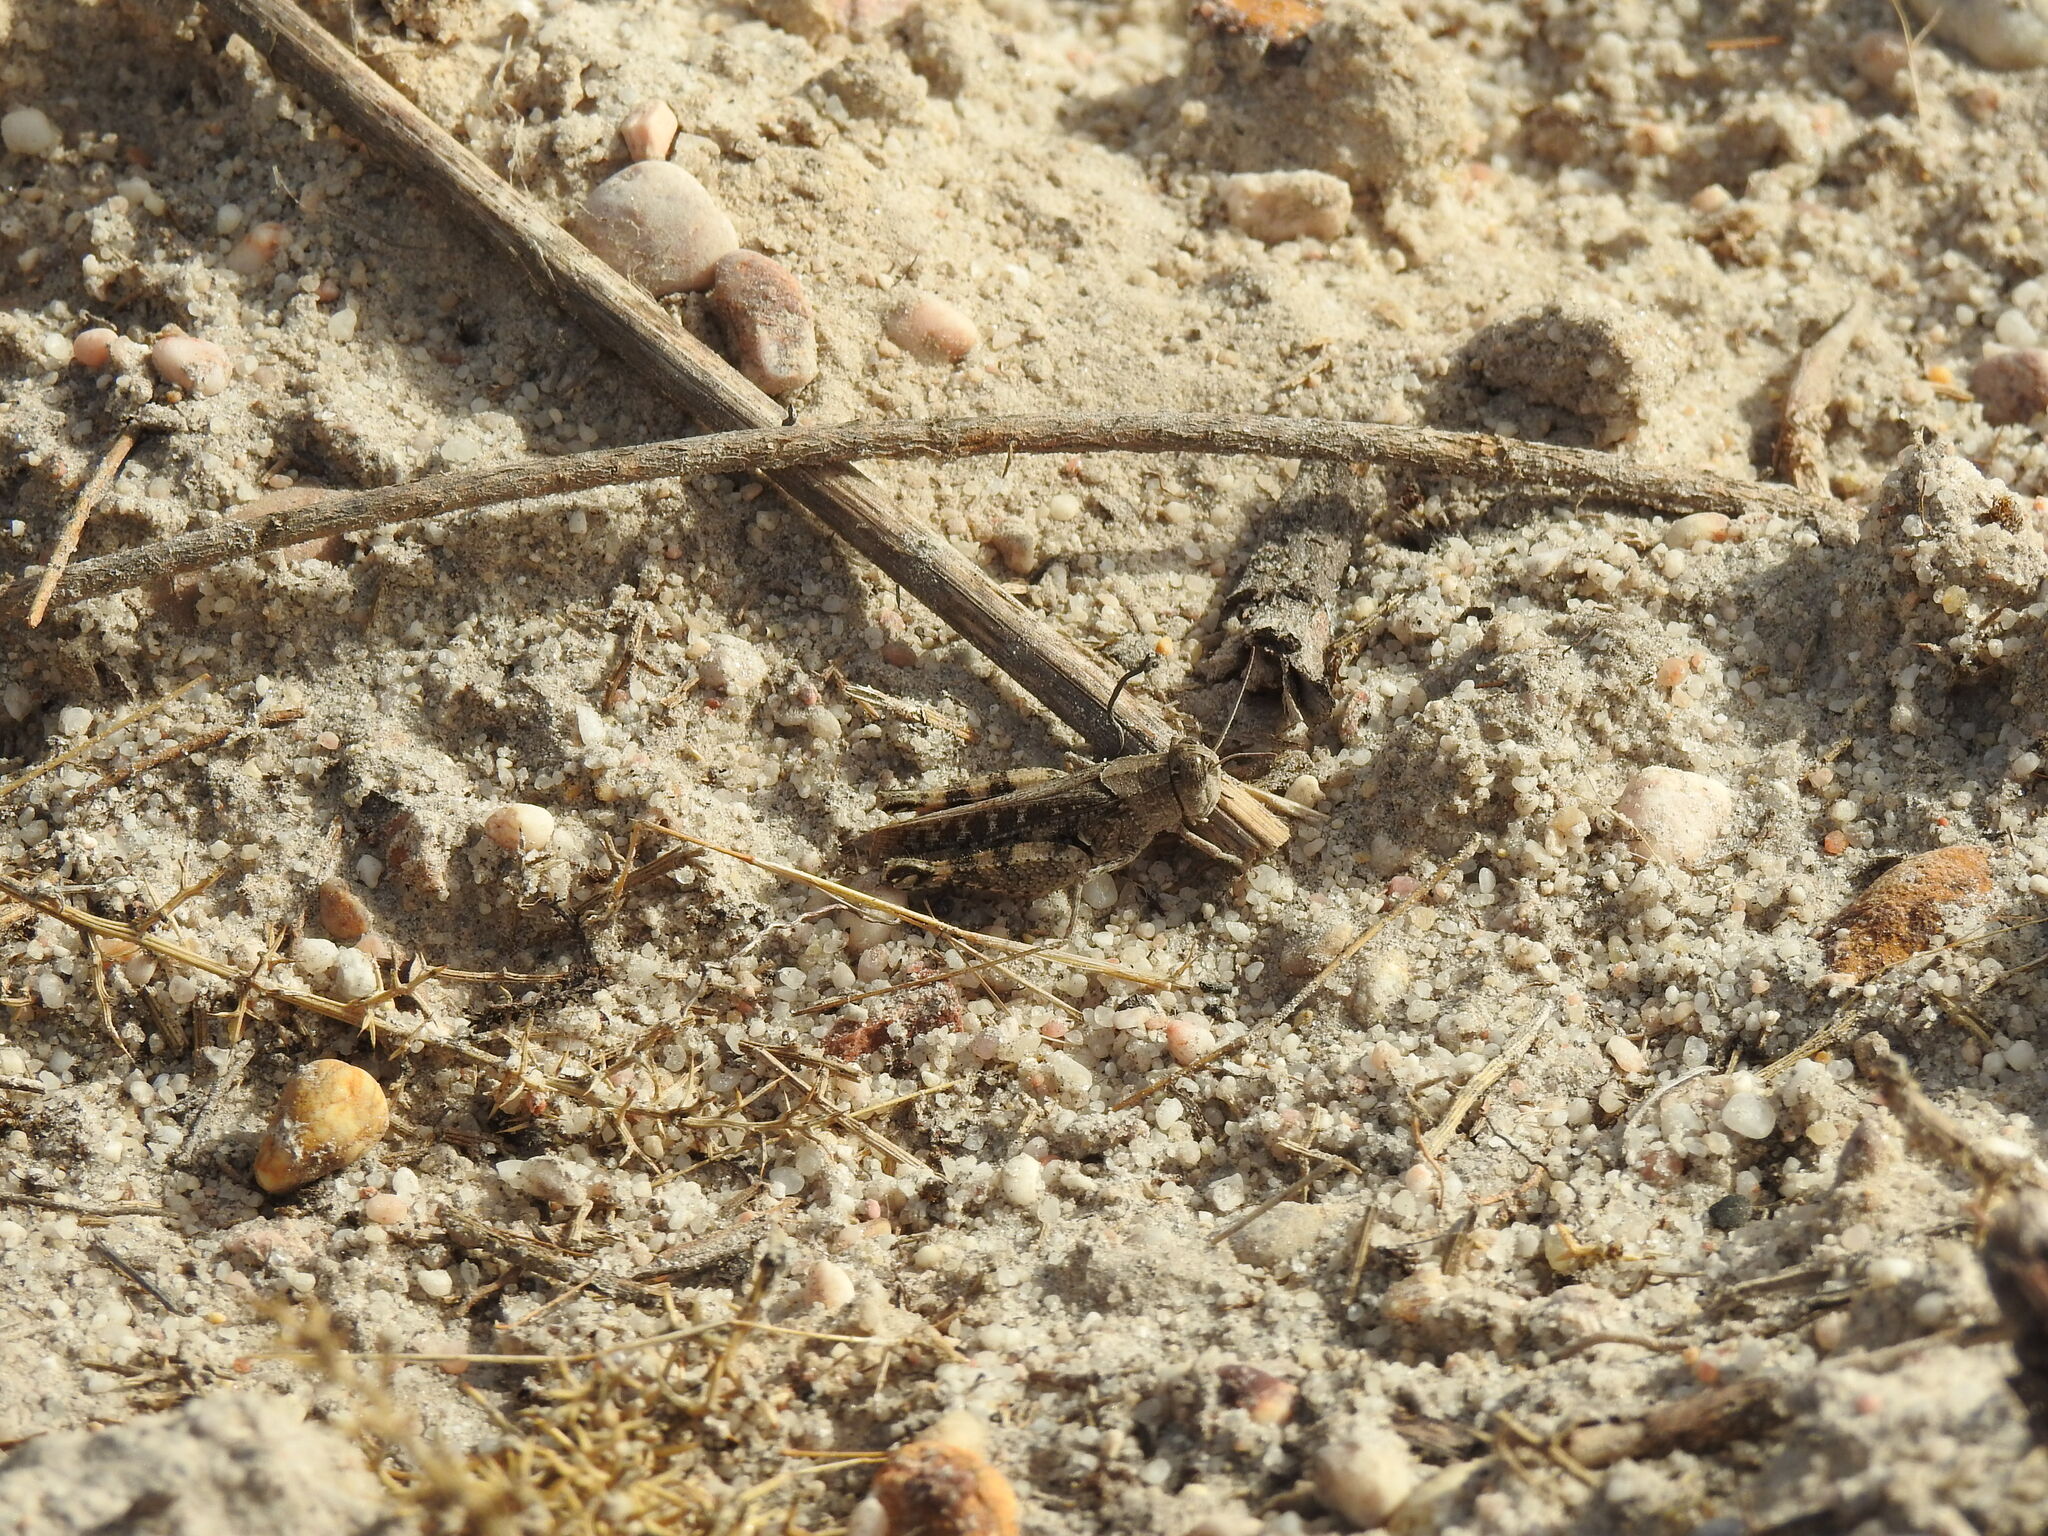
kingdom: Animalia
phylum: Arthropoda
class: Insecta
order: Orthoptera
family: Acrididae
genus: Calliptamus
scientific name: Calliptamus barbarus
